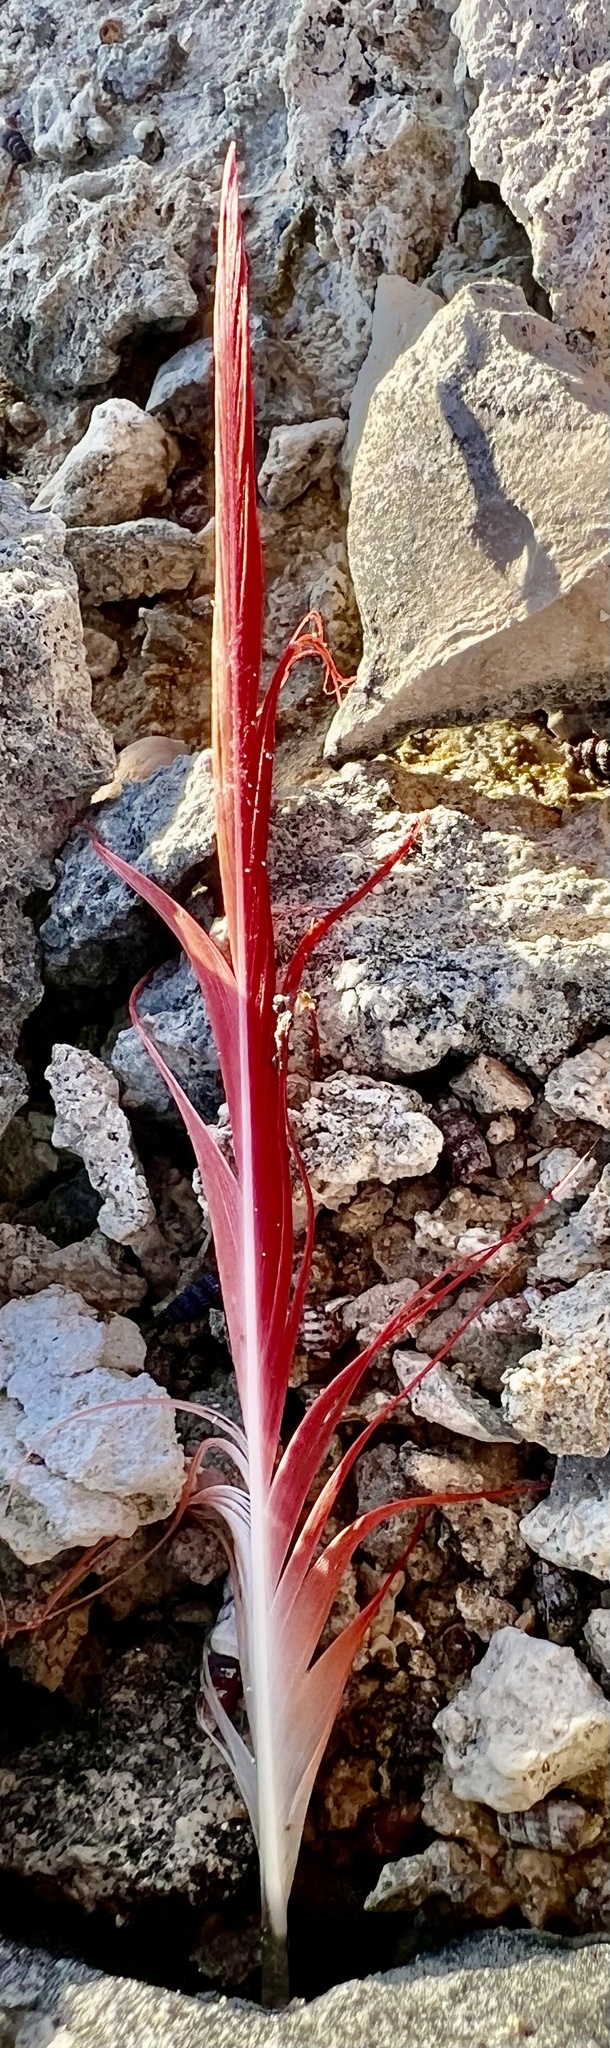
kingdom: Animalia
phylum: Chordata
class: Aves
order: Phoenicopteriformes
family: Phoenicopteridae
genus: Phoenicopterus
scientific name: Phoenicopterus ruber
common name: American flamingo
